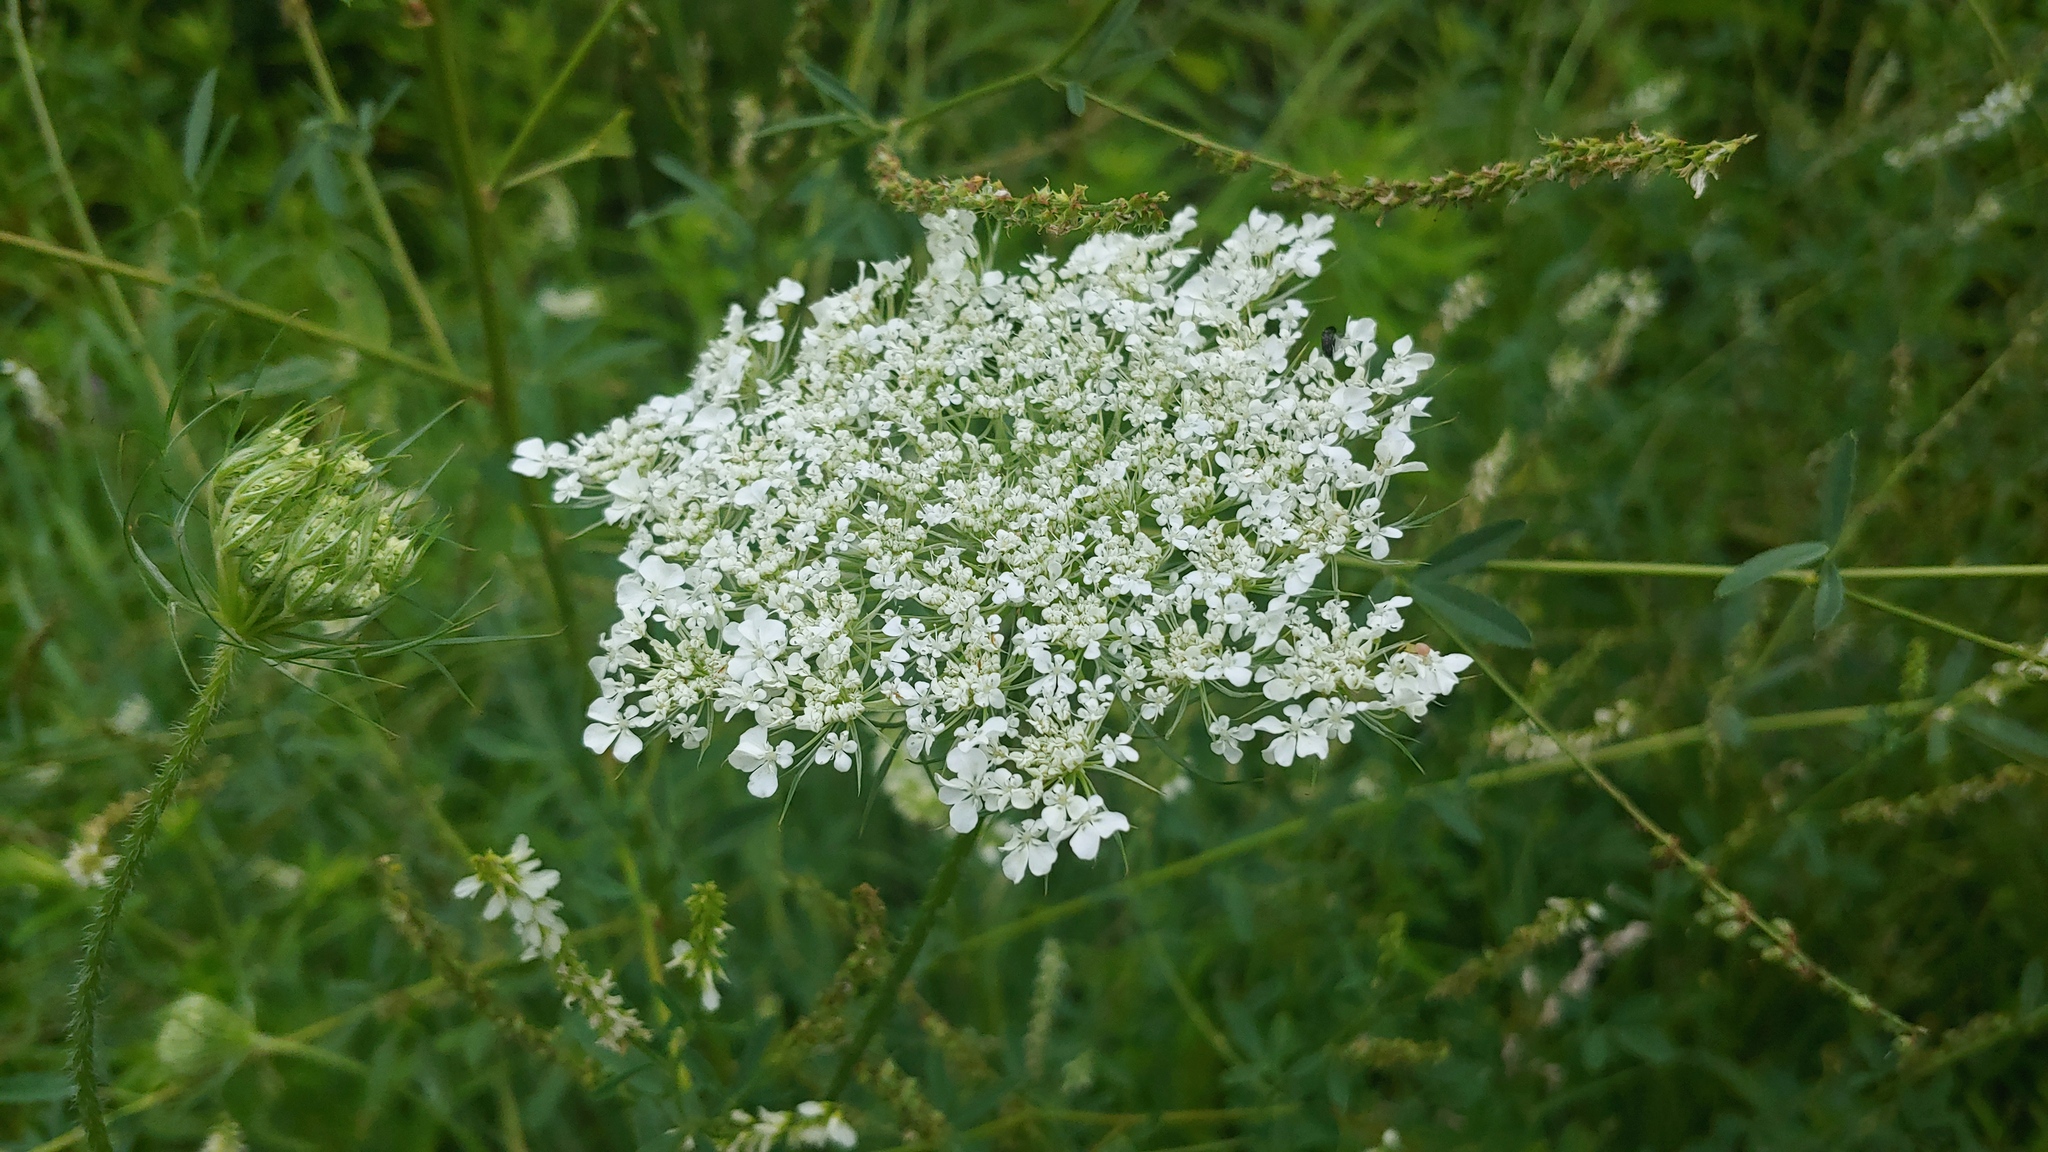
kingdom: Plantae
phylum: Tracheophyta
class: Magnoliopsida
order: Apiales
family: Apiaceae
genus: Daucus
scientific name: Daucus carota
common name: Wild carrot
